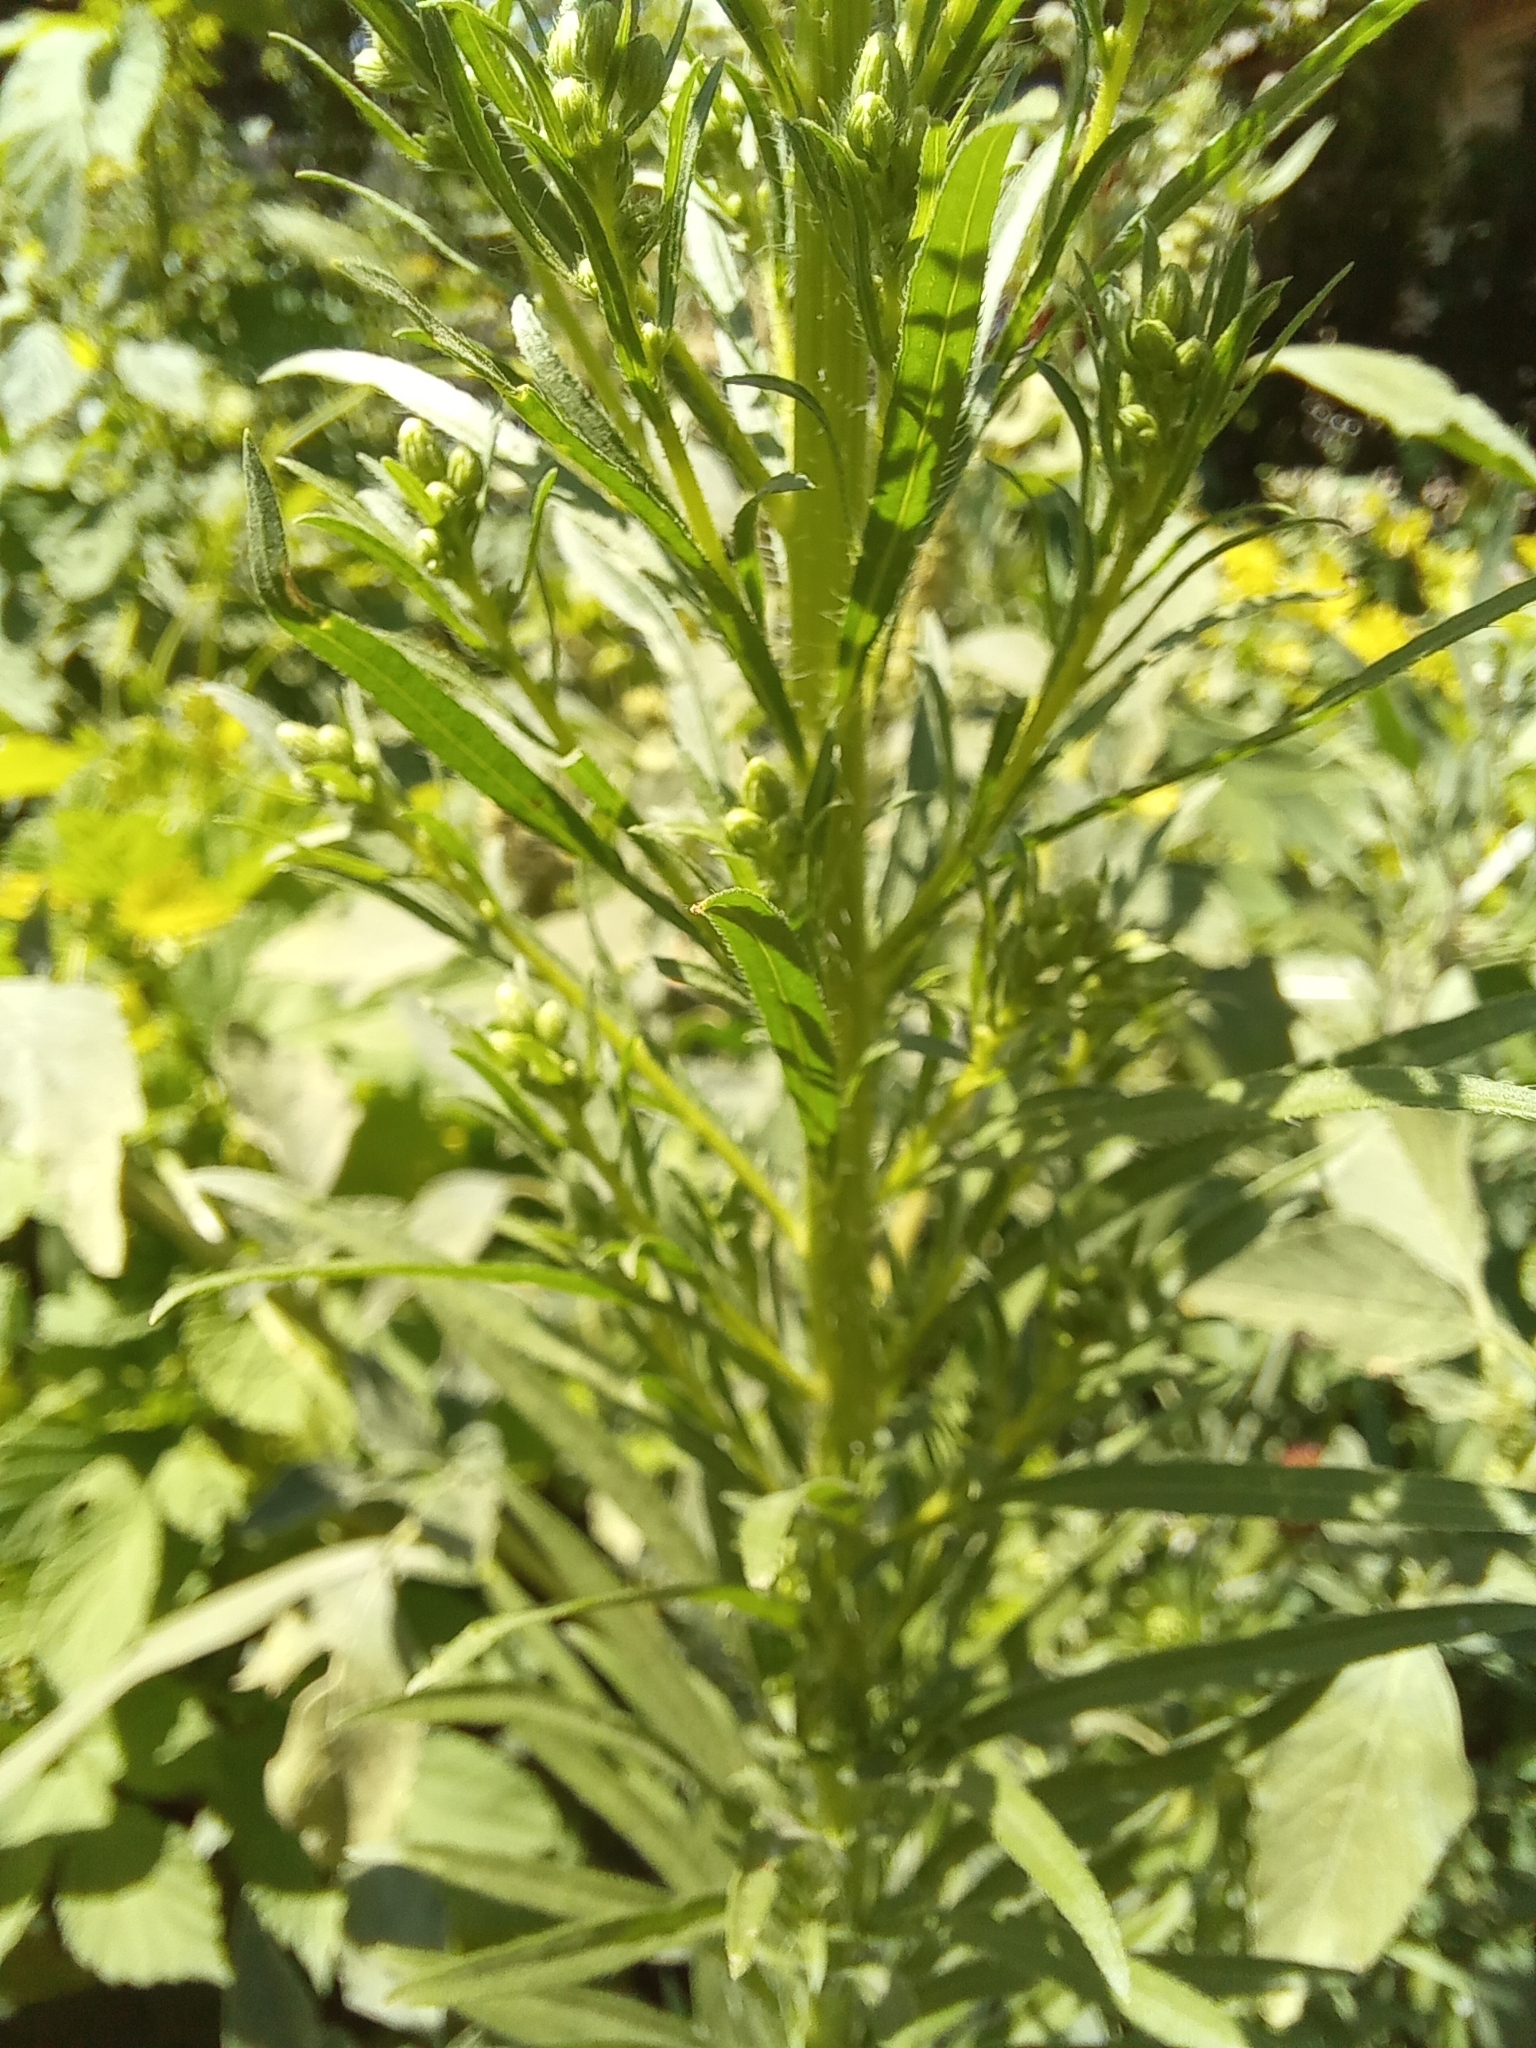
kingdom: Plantae
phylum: Tracheophyta
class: Magnoliopsida
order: Asterales
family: Asteraceae
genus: Erigeron
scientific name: Erigeron canadensis
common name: Canadian fleabane
